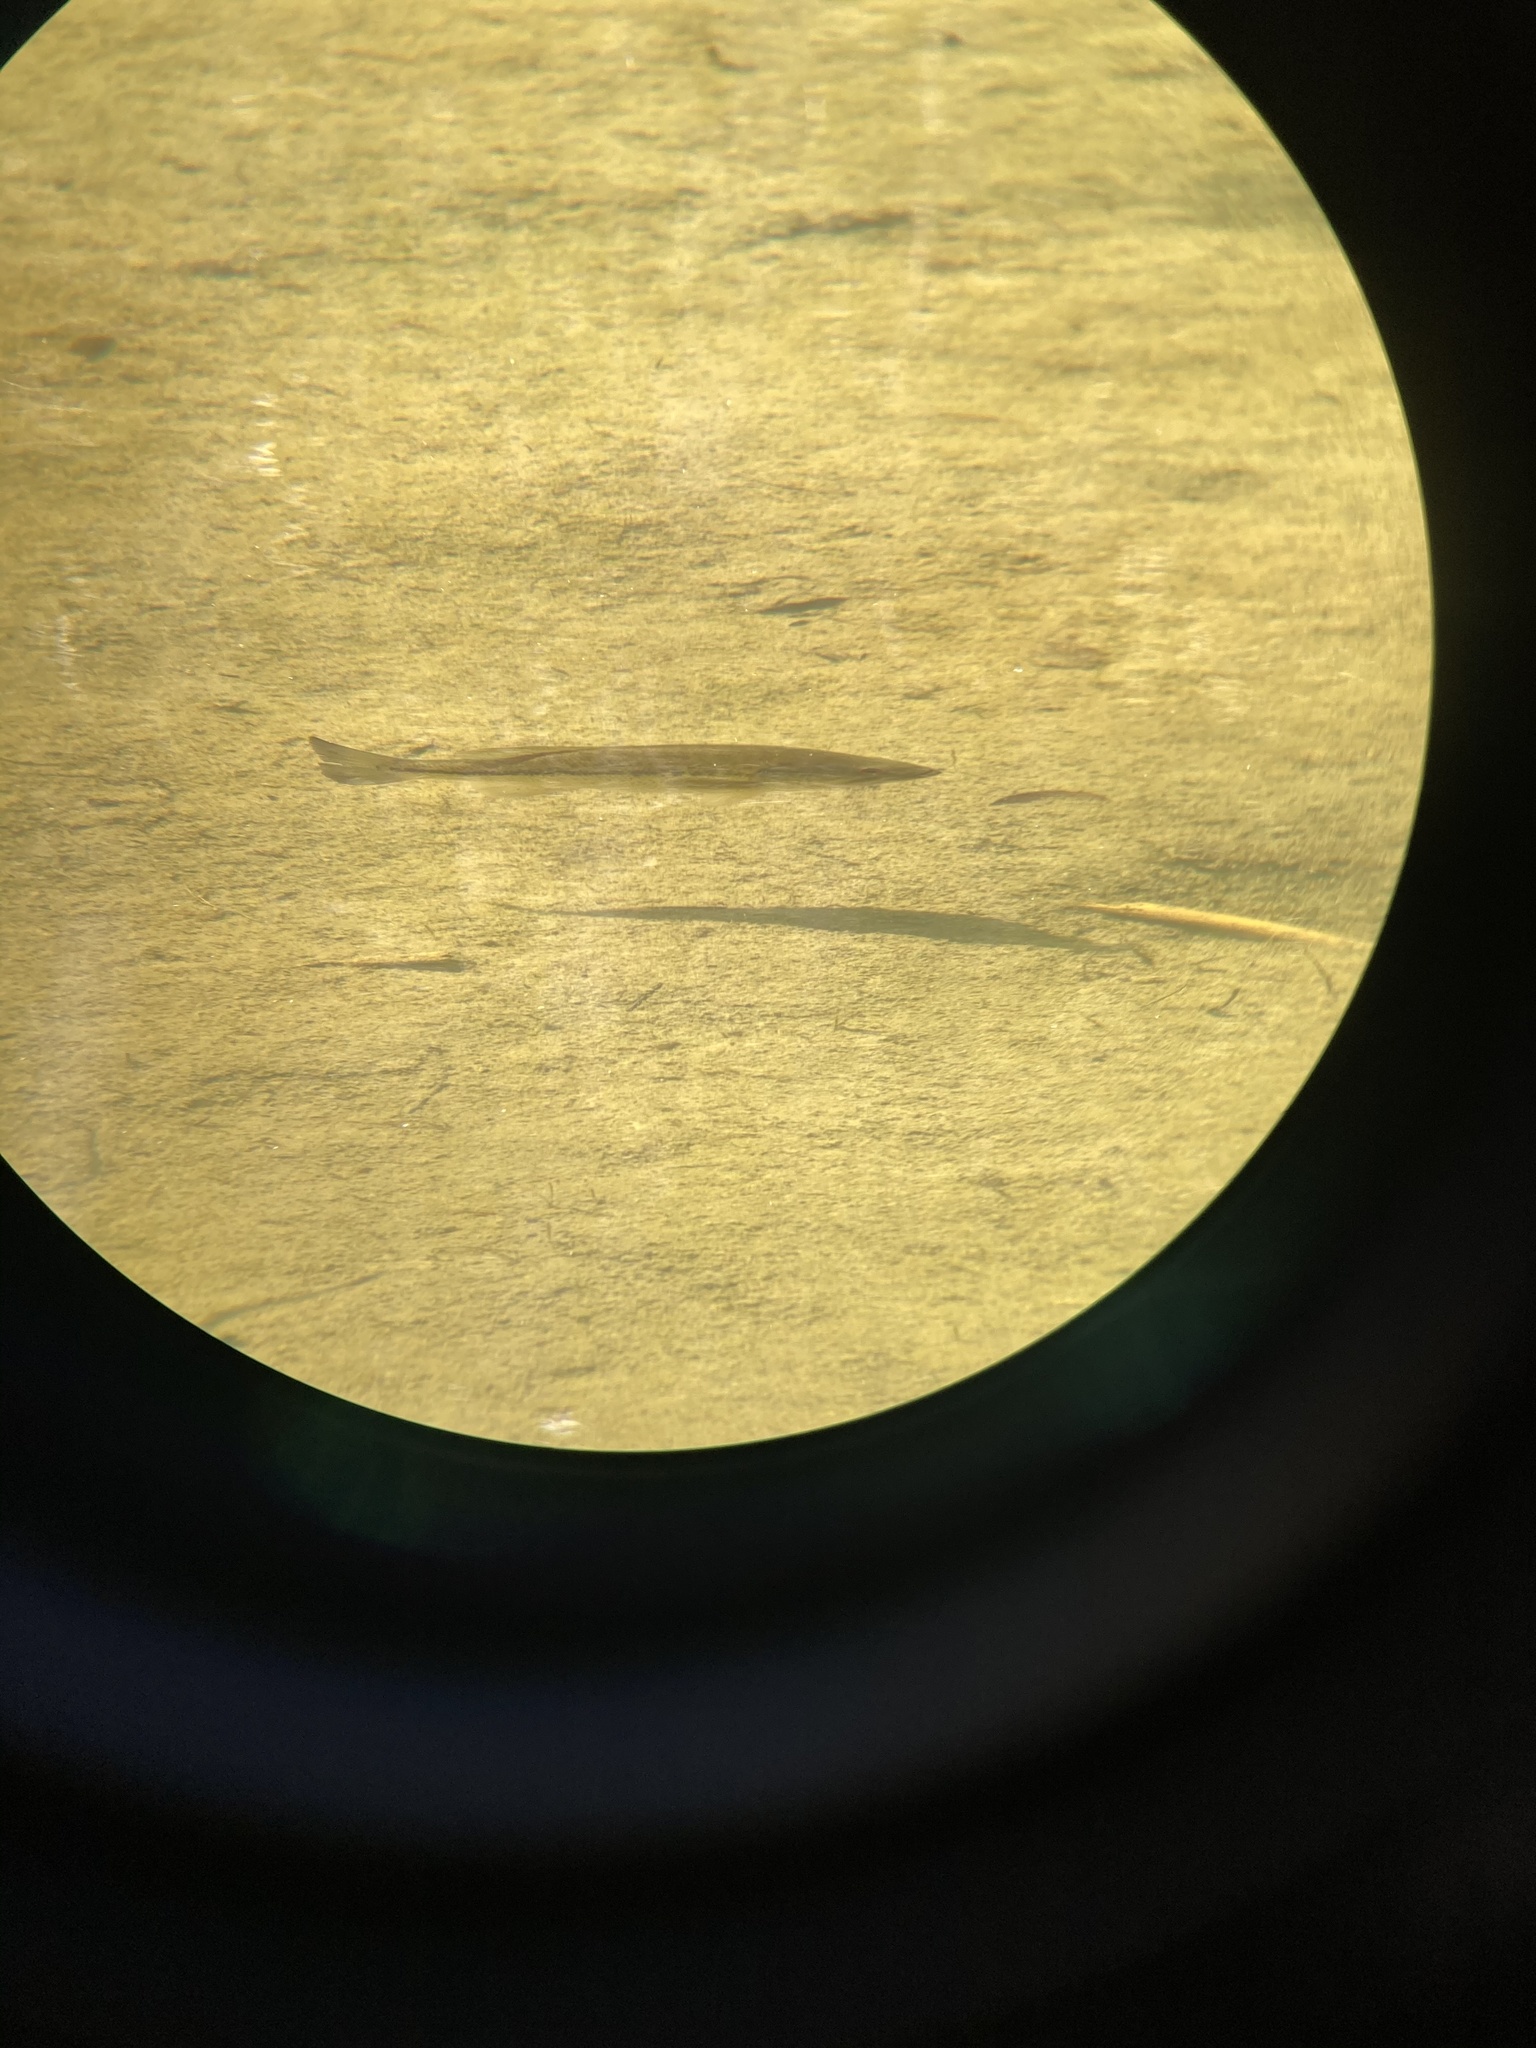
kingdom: Animalia
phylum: Chordata
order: Perciformes
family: Centrarchidae
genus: Micropterus
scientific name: Micropterus
